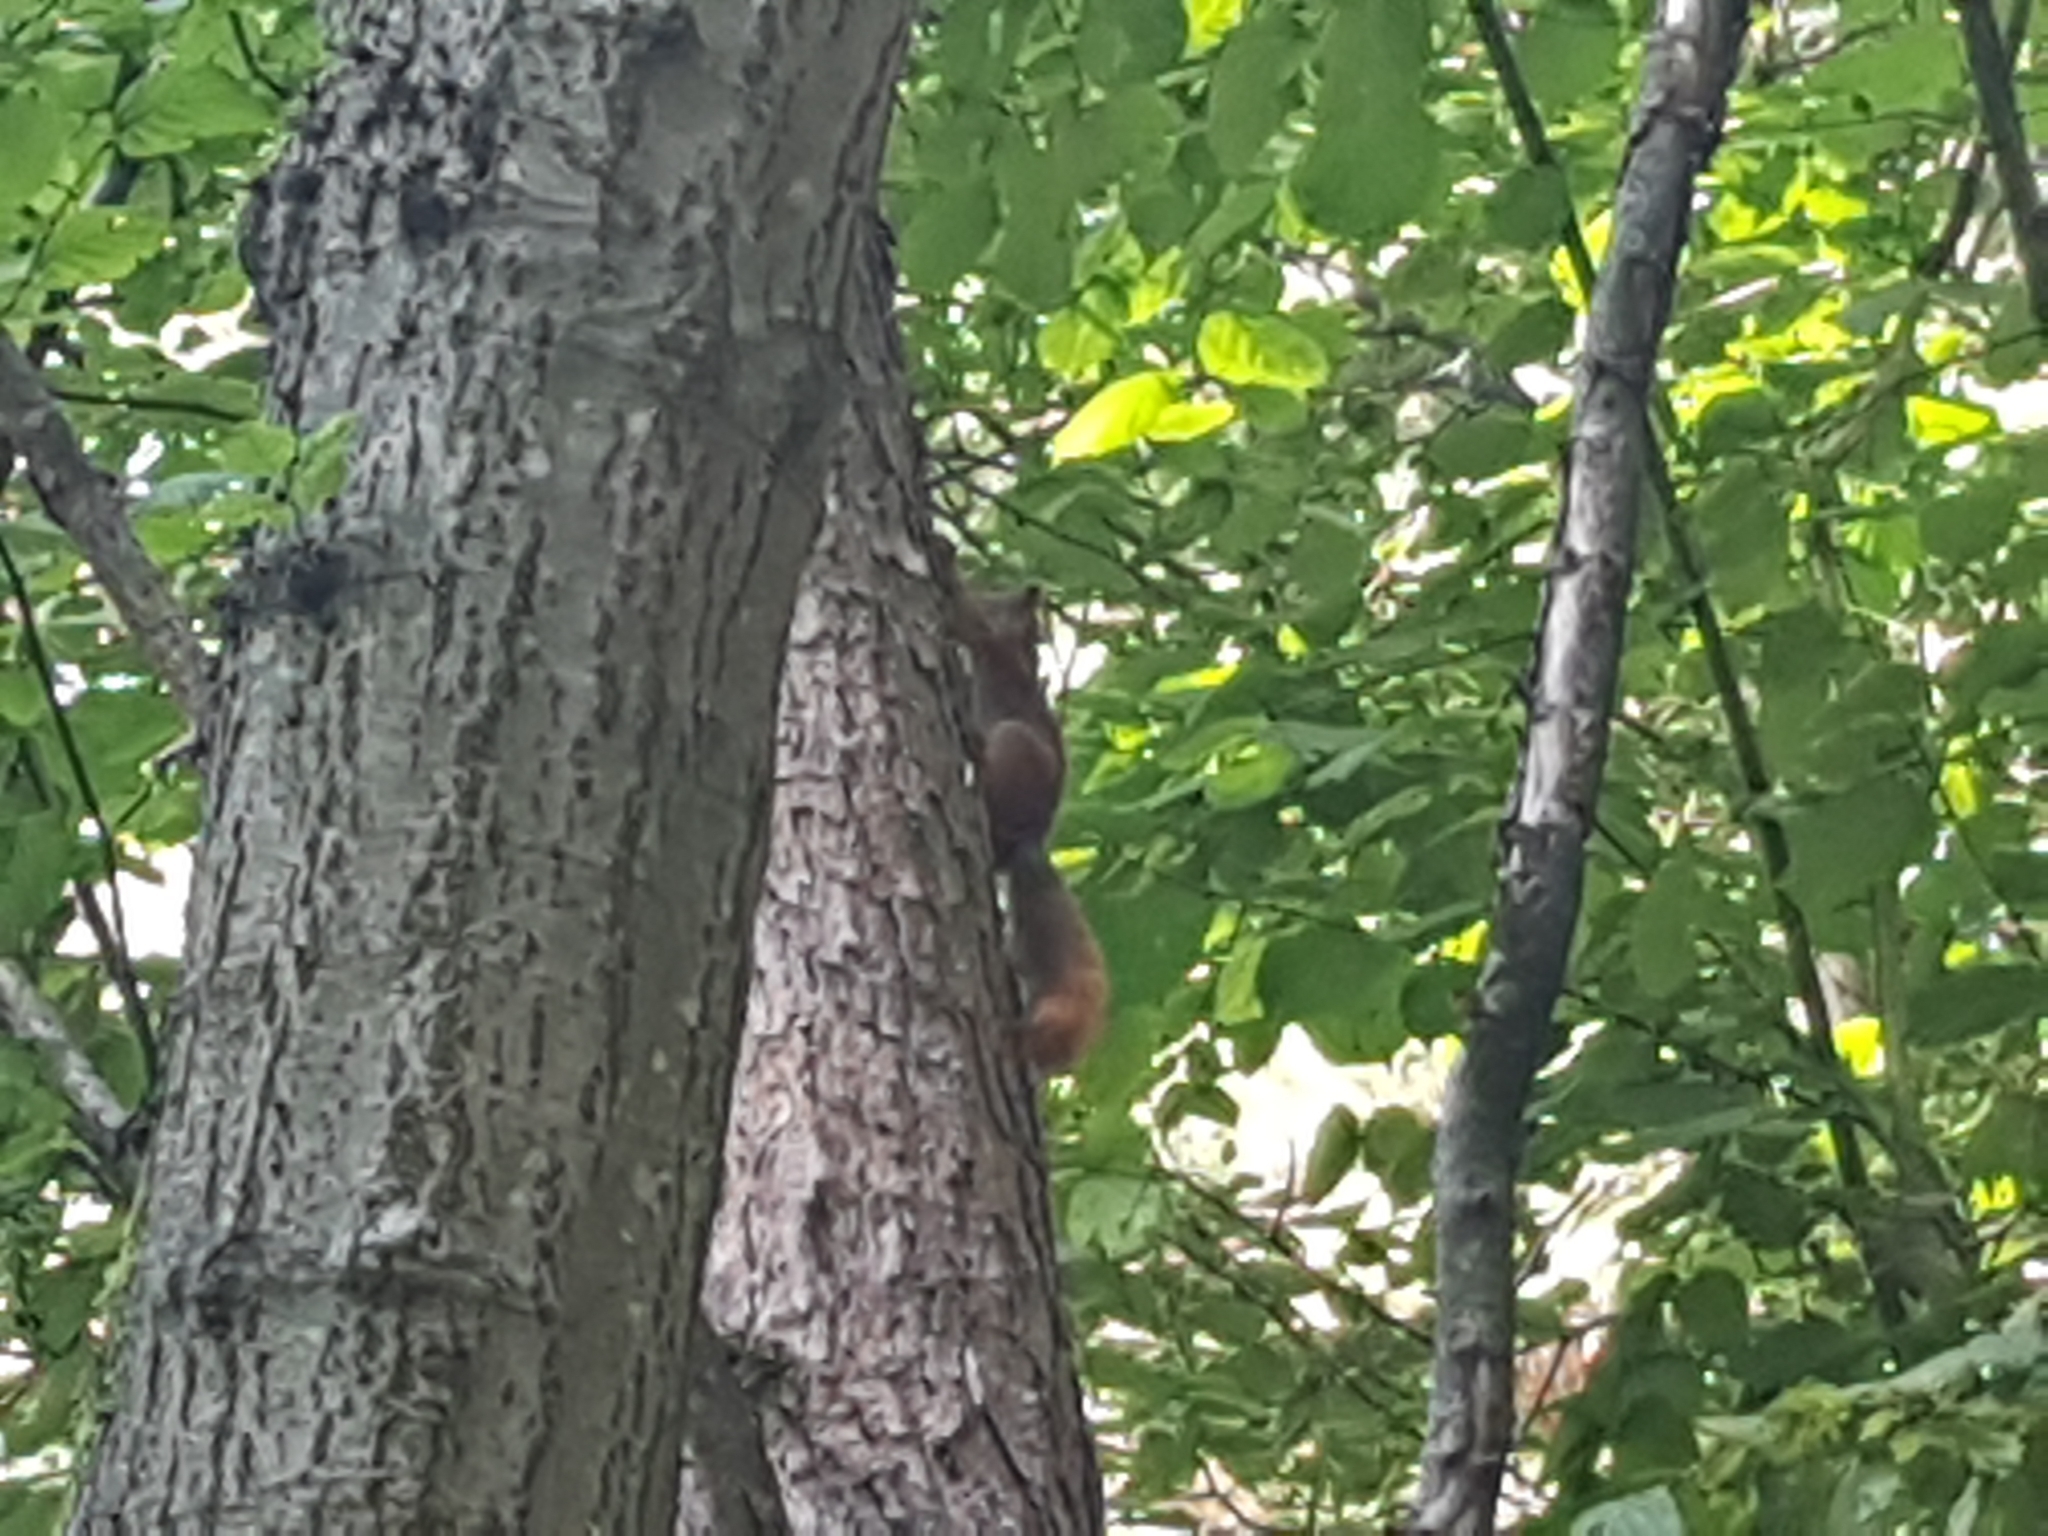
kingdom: Animalia
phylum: Chordata
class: Mammalia
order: Rodentia
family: Sciuridae
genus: Sciurus
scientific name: Sciurus vulgaris
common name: Eurasian red squirrel
